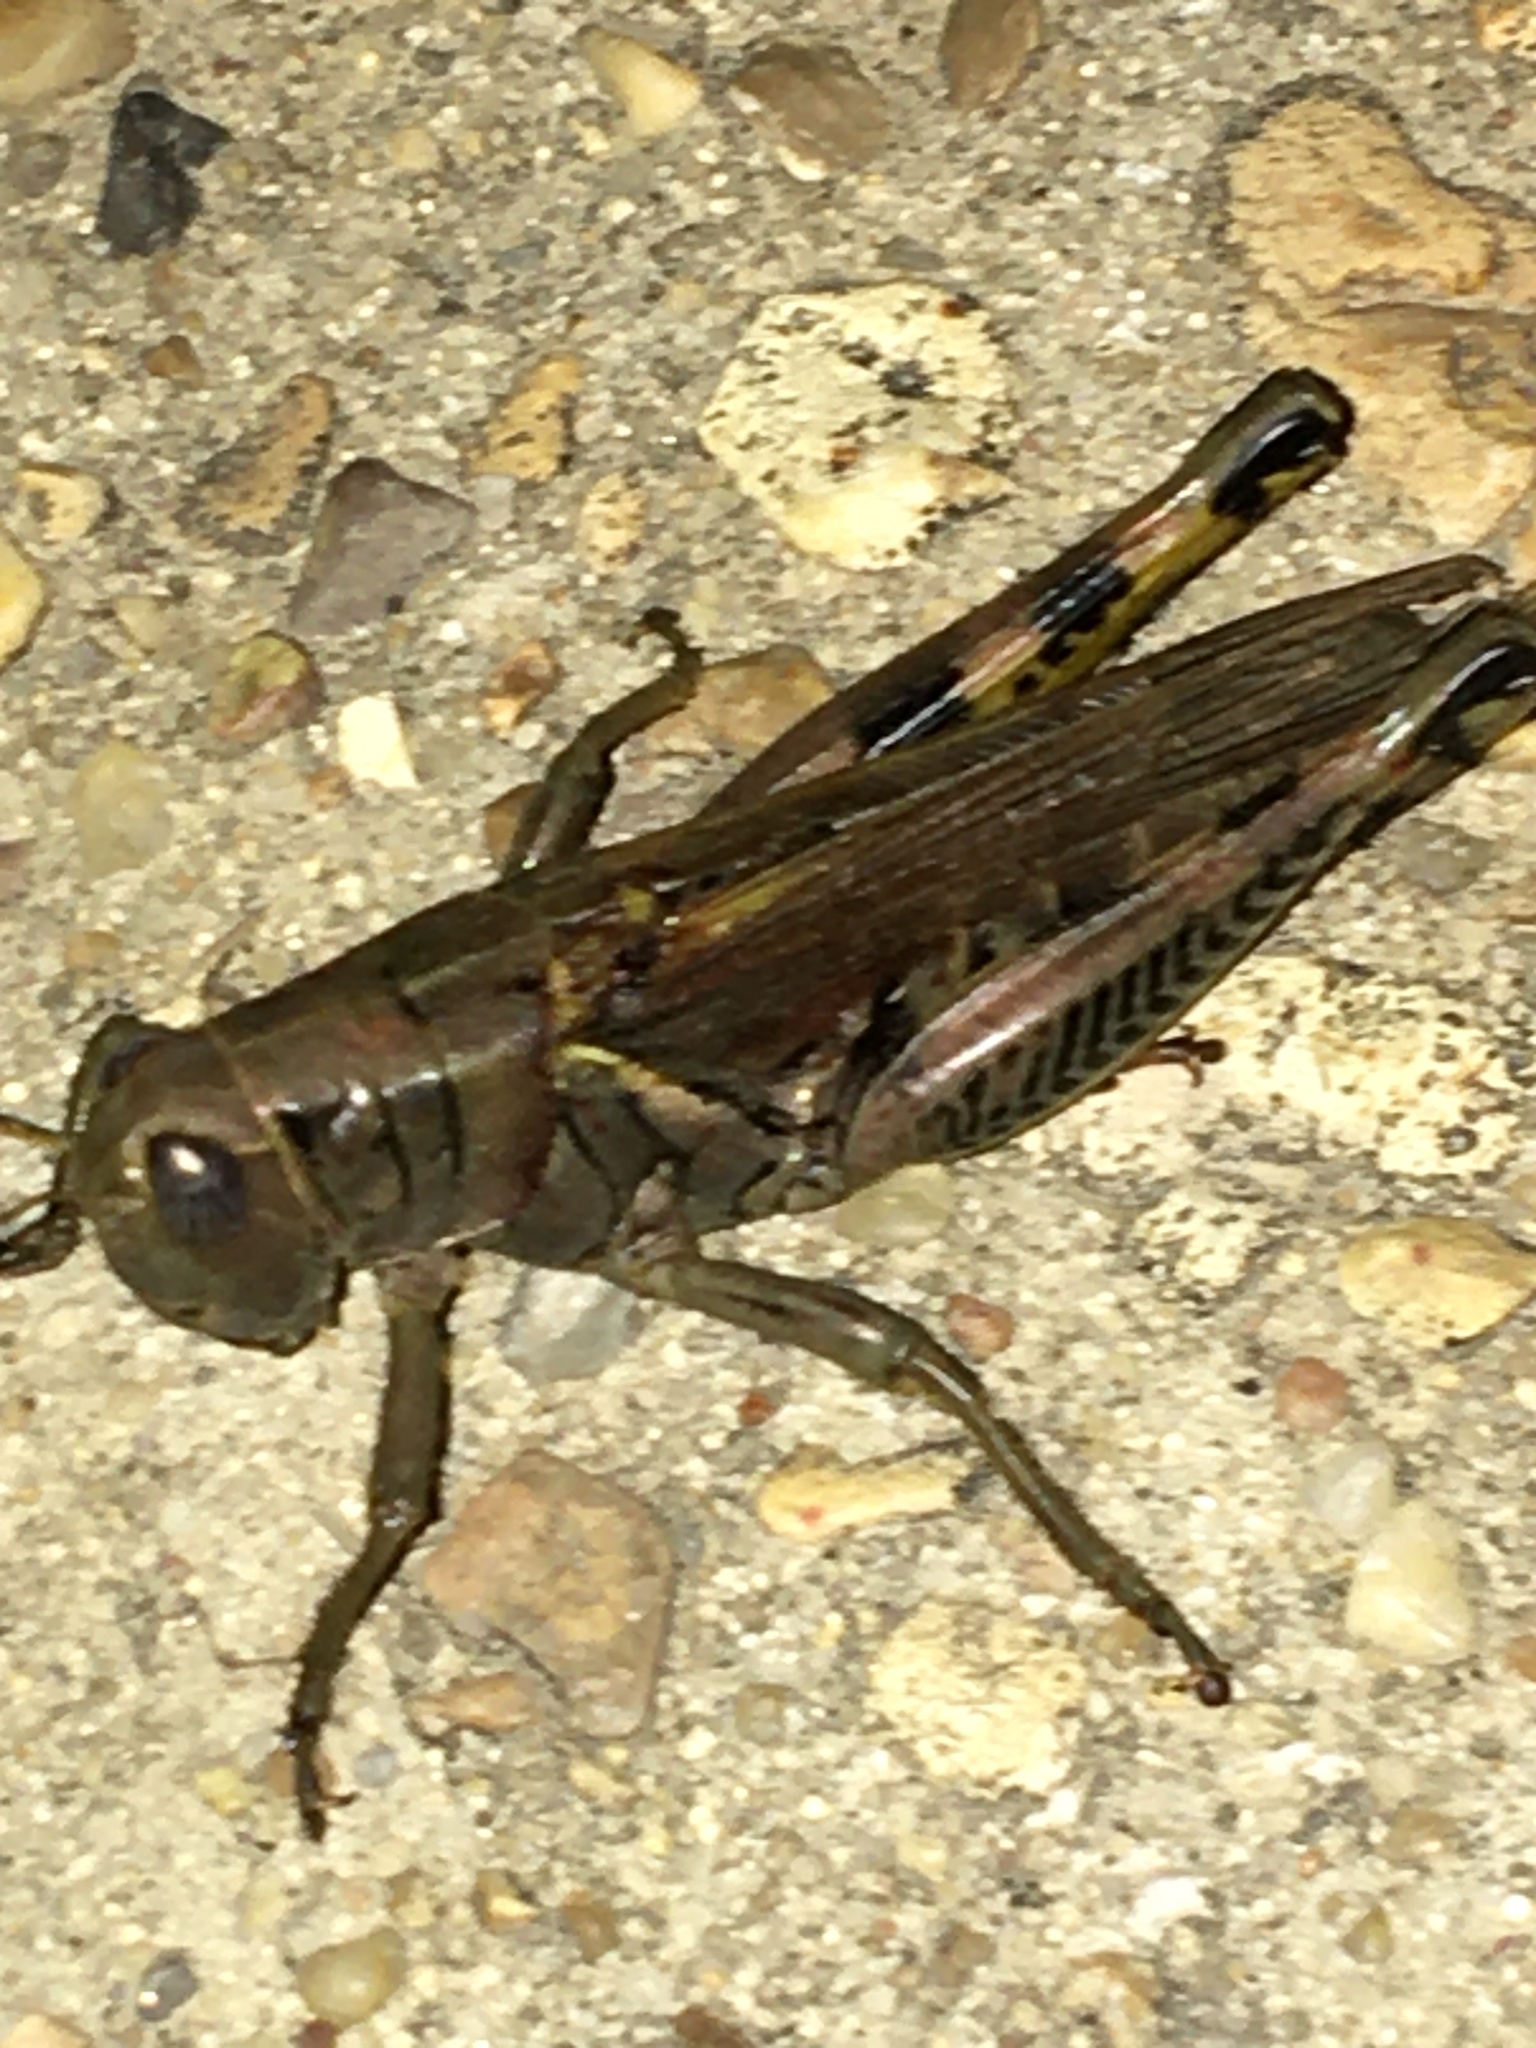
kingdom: Animalia
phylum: Arthropoda
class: Insecta
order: Orthoptera
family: Acrididae
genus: Melanoplus
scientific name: Melanoplus differentialis
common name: Differential grasshopper
